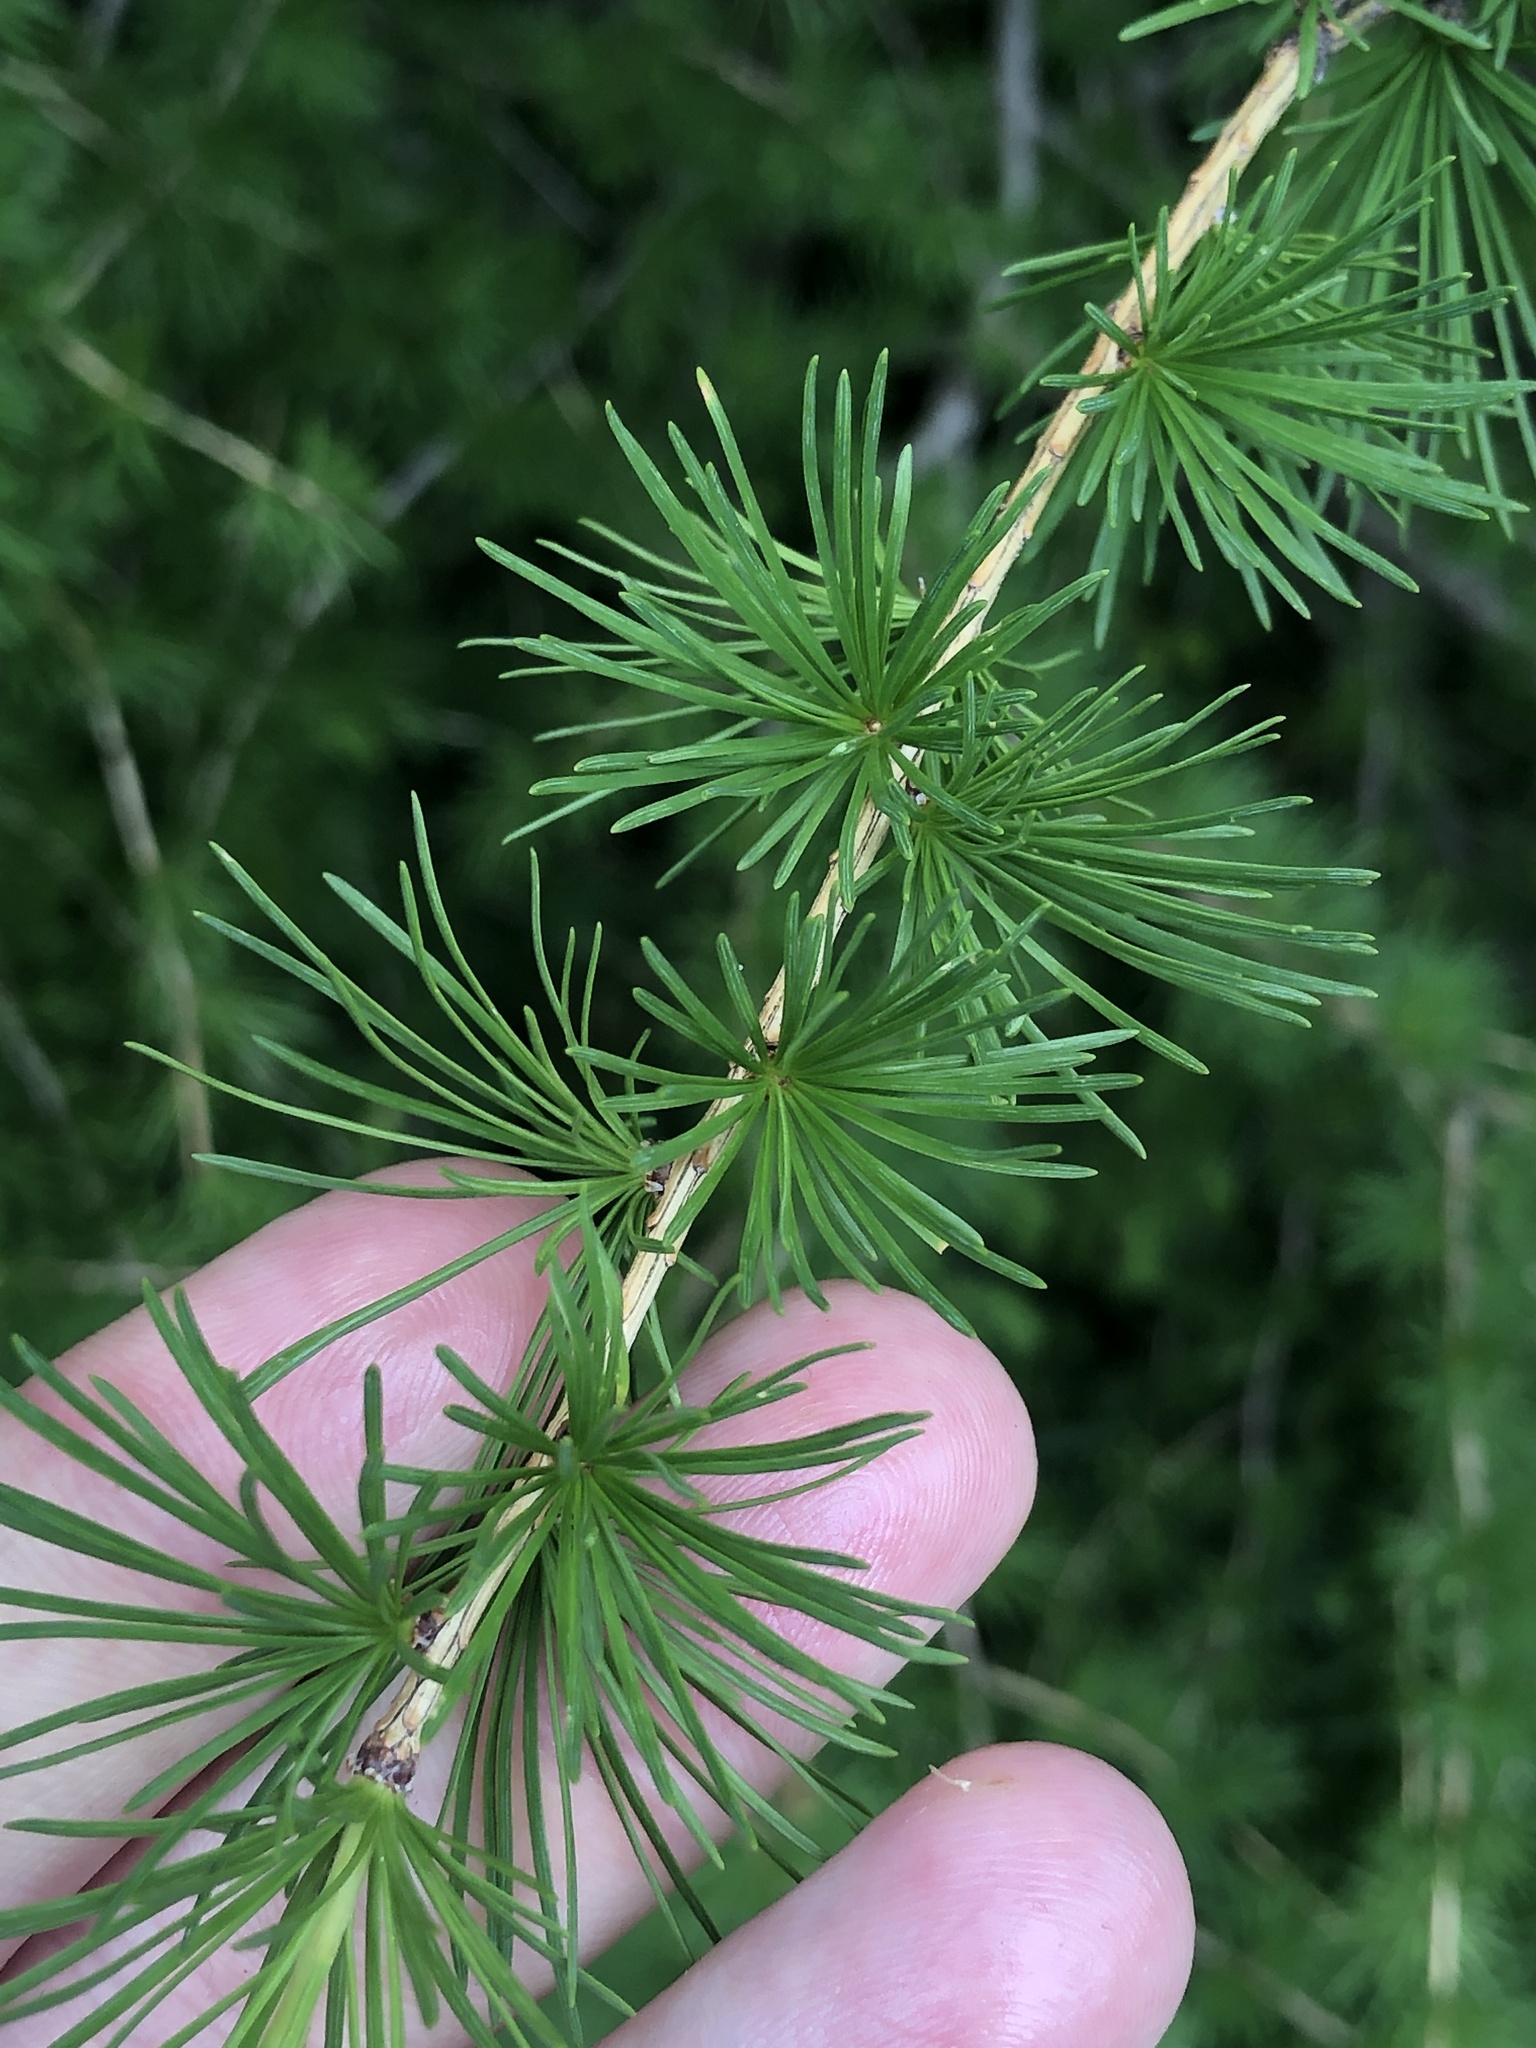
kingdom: Plantae
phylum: Tracheophyta
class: Pinopsida
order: Pinales
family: Pinaceae
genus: Larix
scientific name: Larix decidua
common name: European larch
